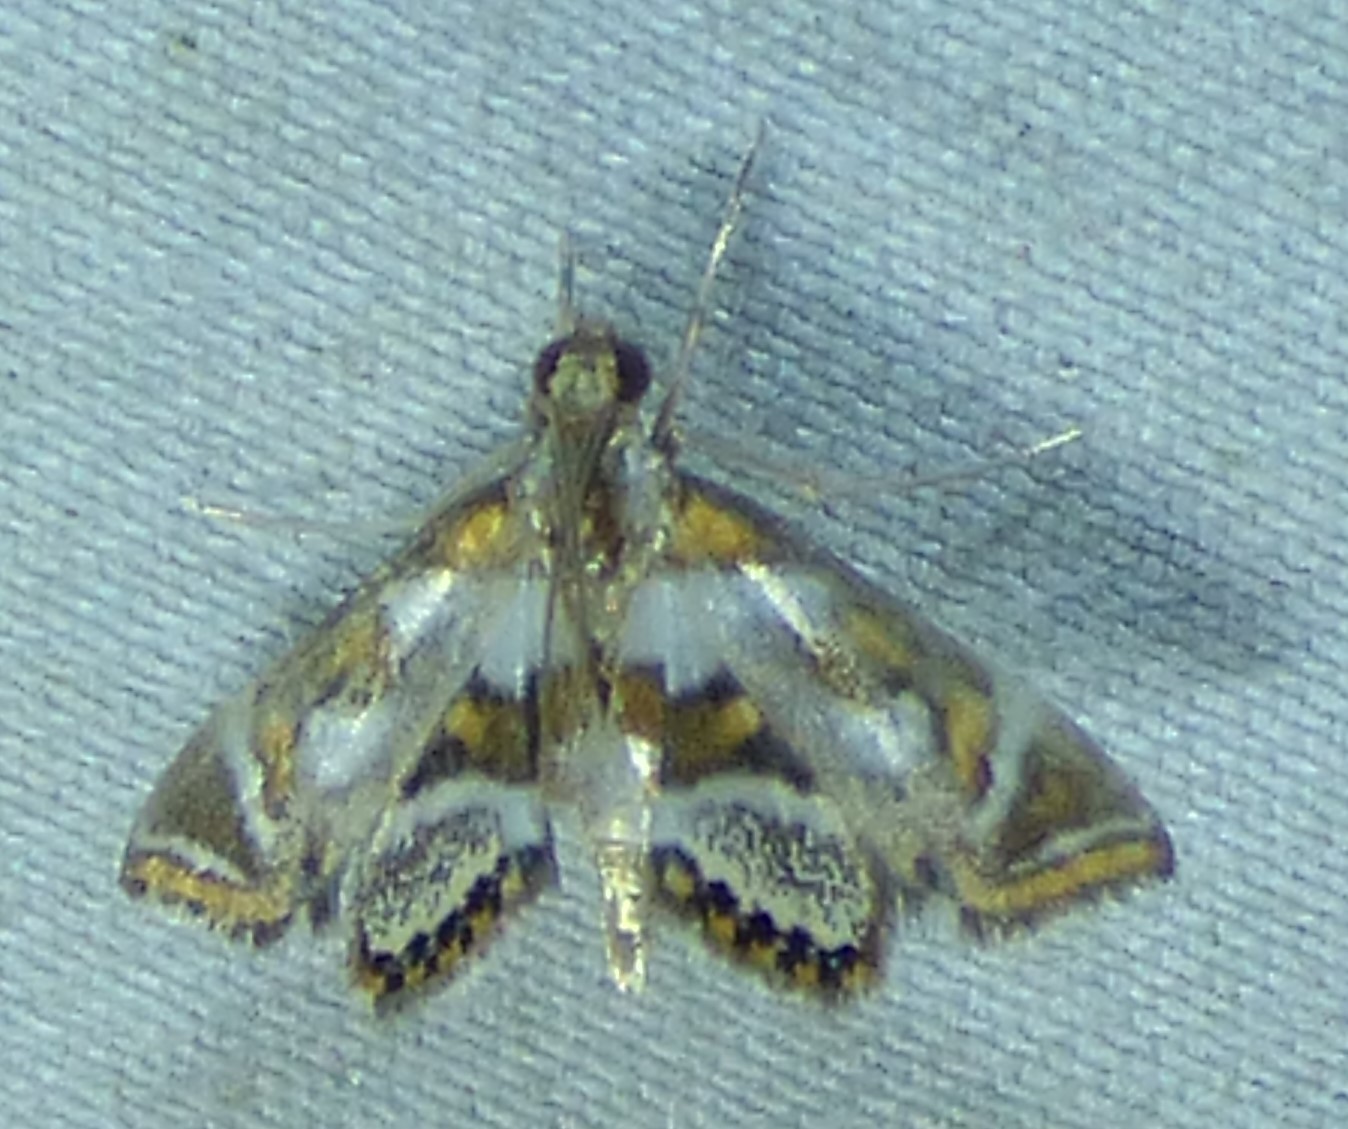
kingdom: Animalia
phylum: Arthropoda
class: Insecta
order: Lepidoptera
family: Crambidae
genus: Chrysendeton
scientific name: Chrysendeton medicinalis
